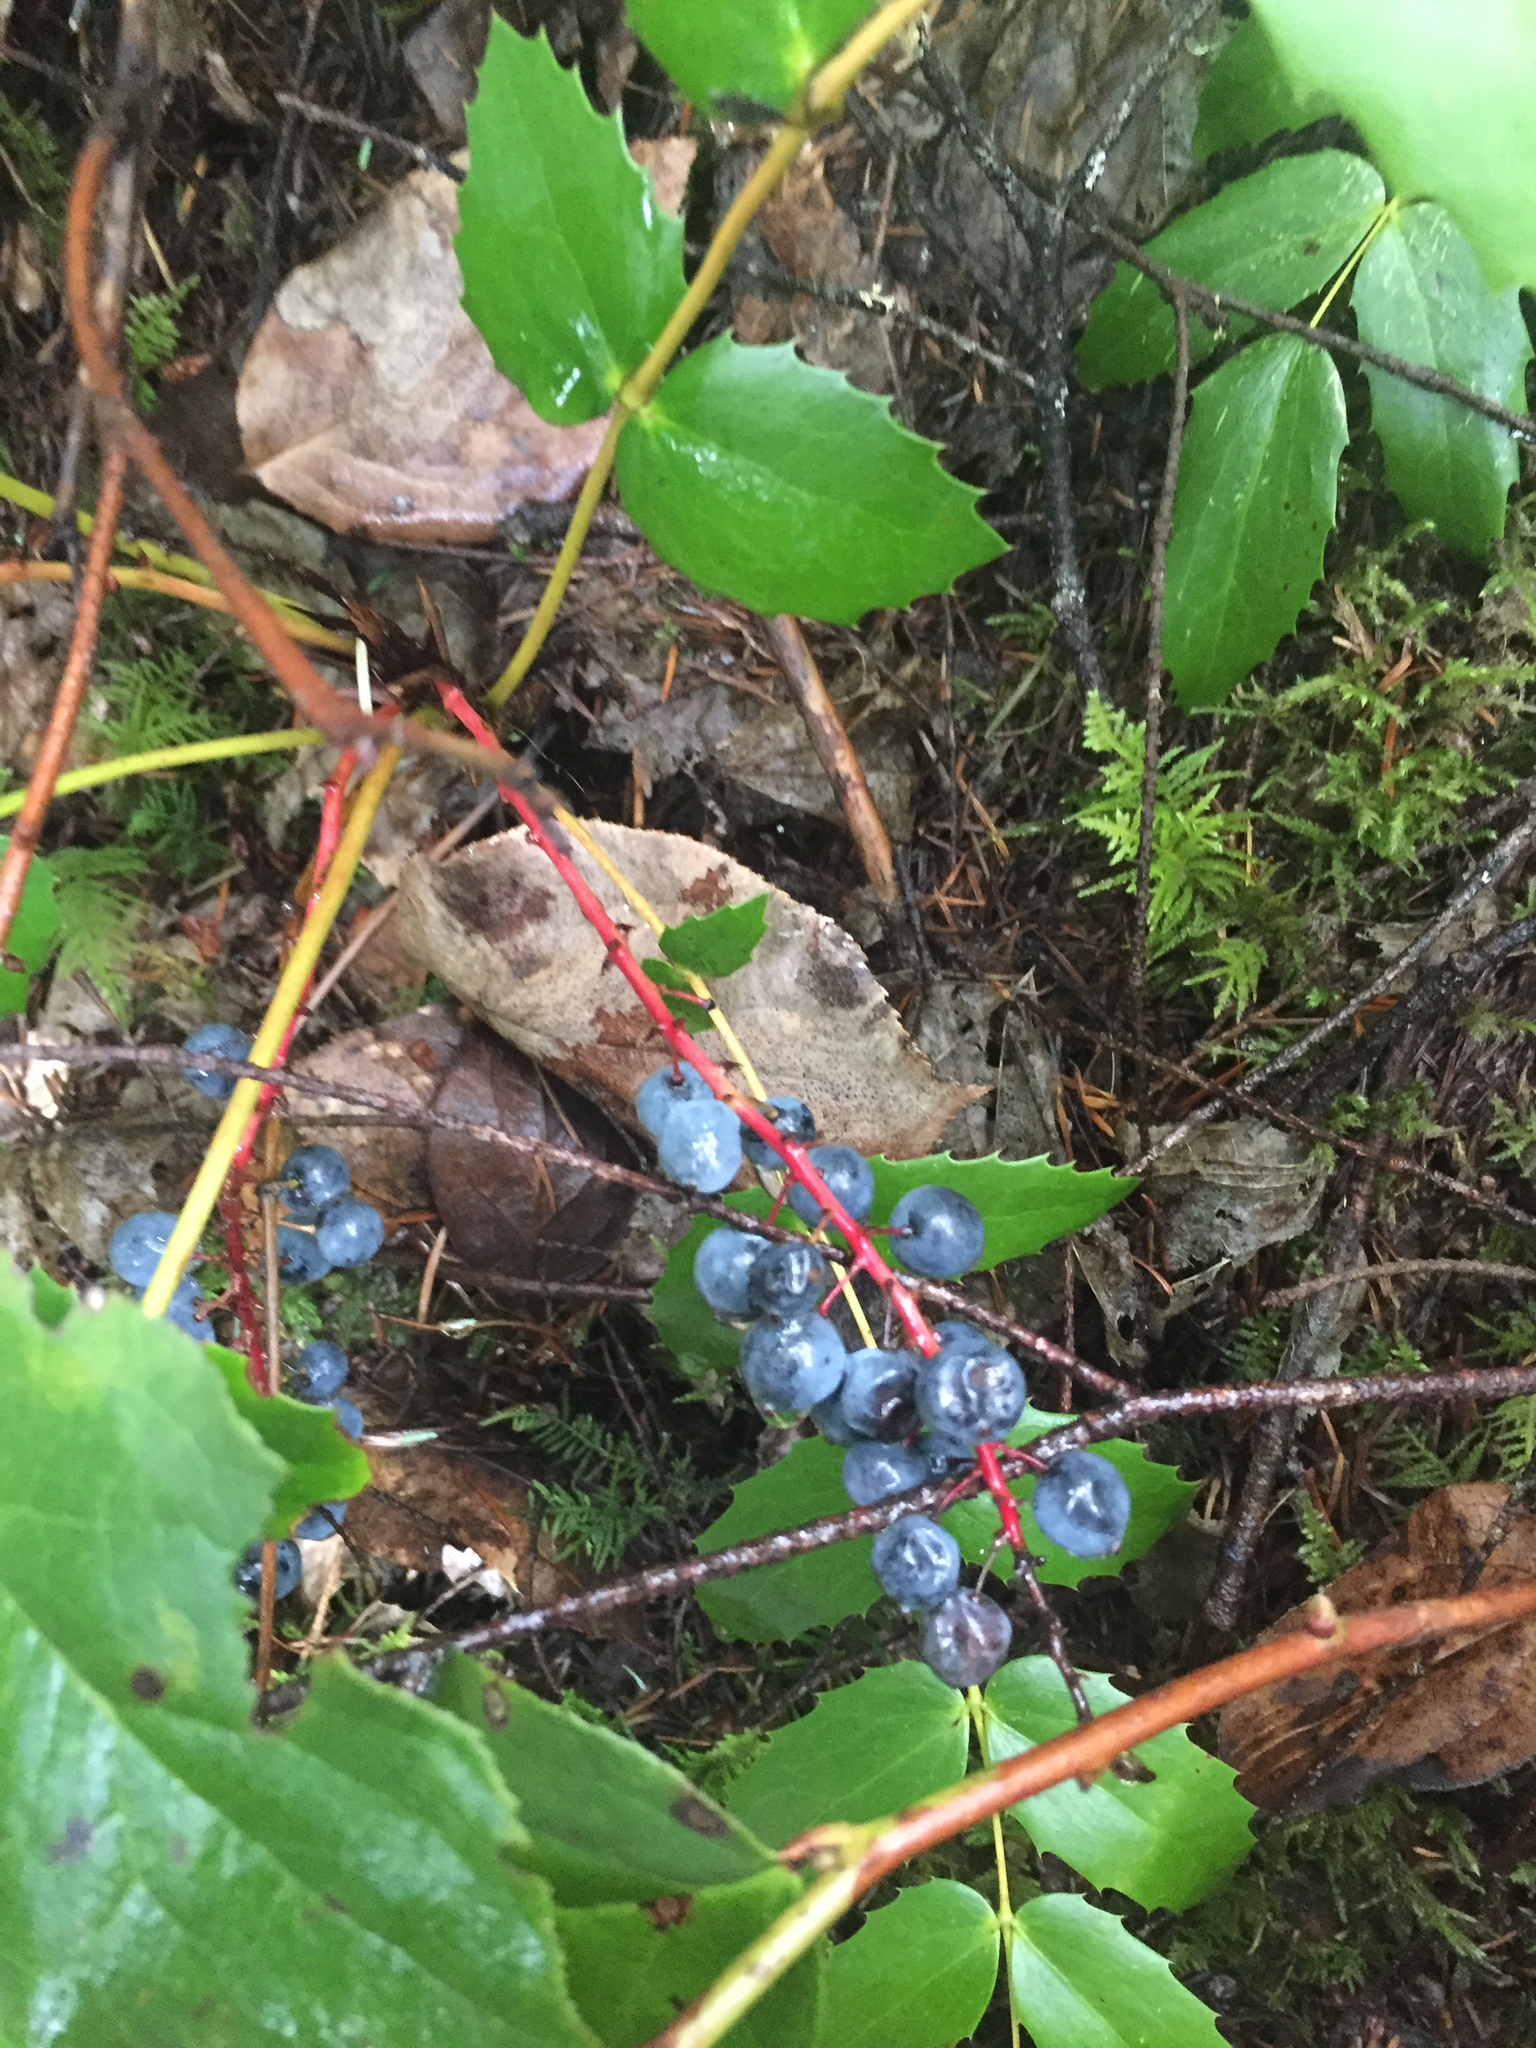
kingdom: Plantae
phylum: Tracheophyta
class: Magnoliopsida
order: Ranunculales
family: Berberidaceae
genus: Mahonia
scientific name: Mahonia nervosa
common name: Cascade oregon-grape
